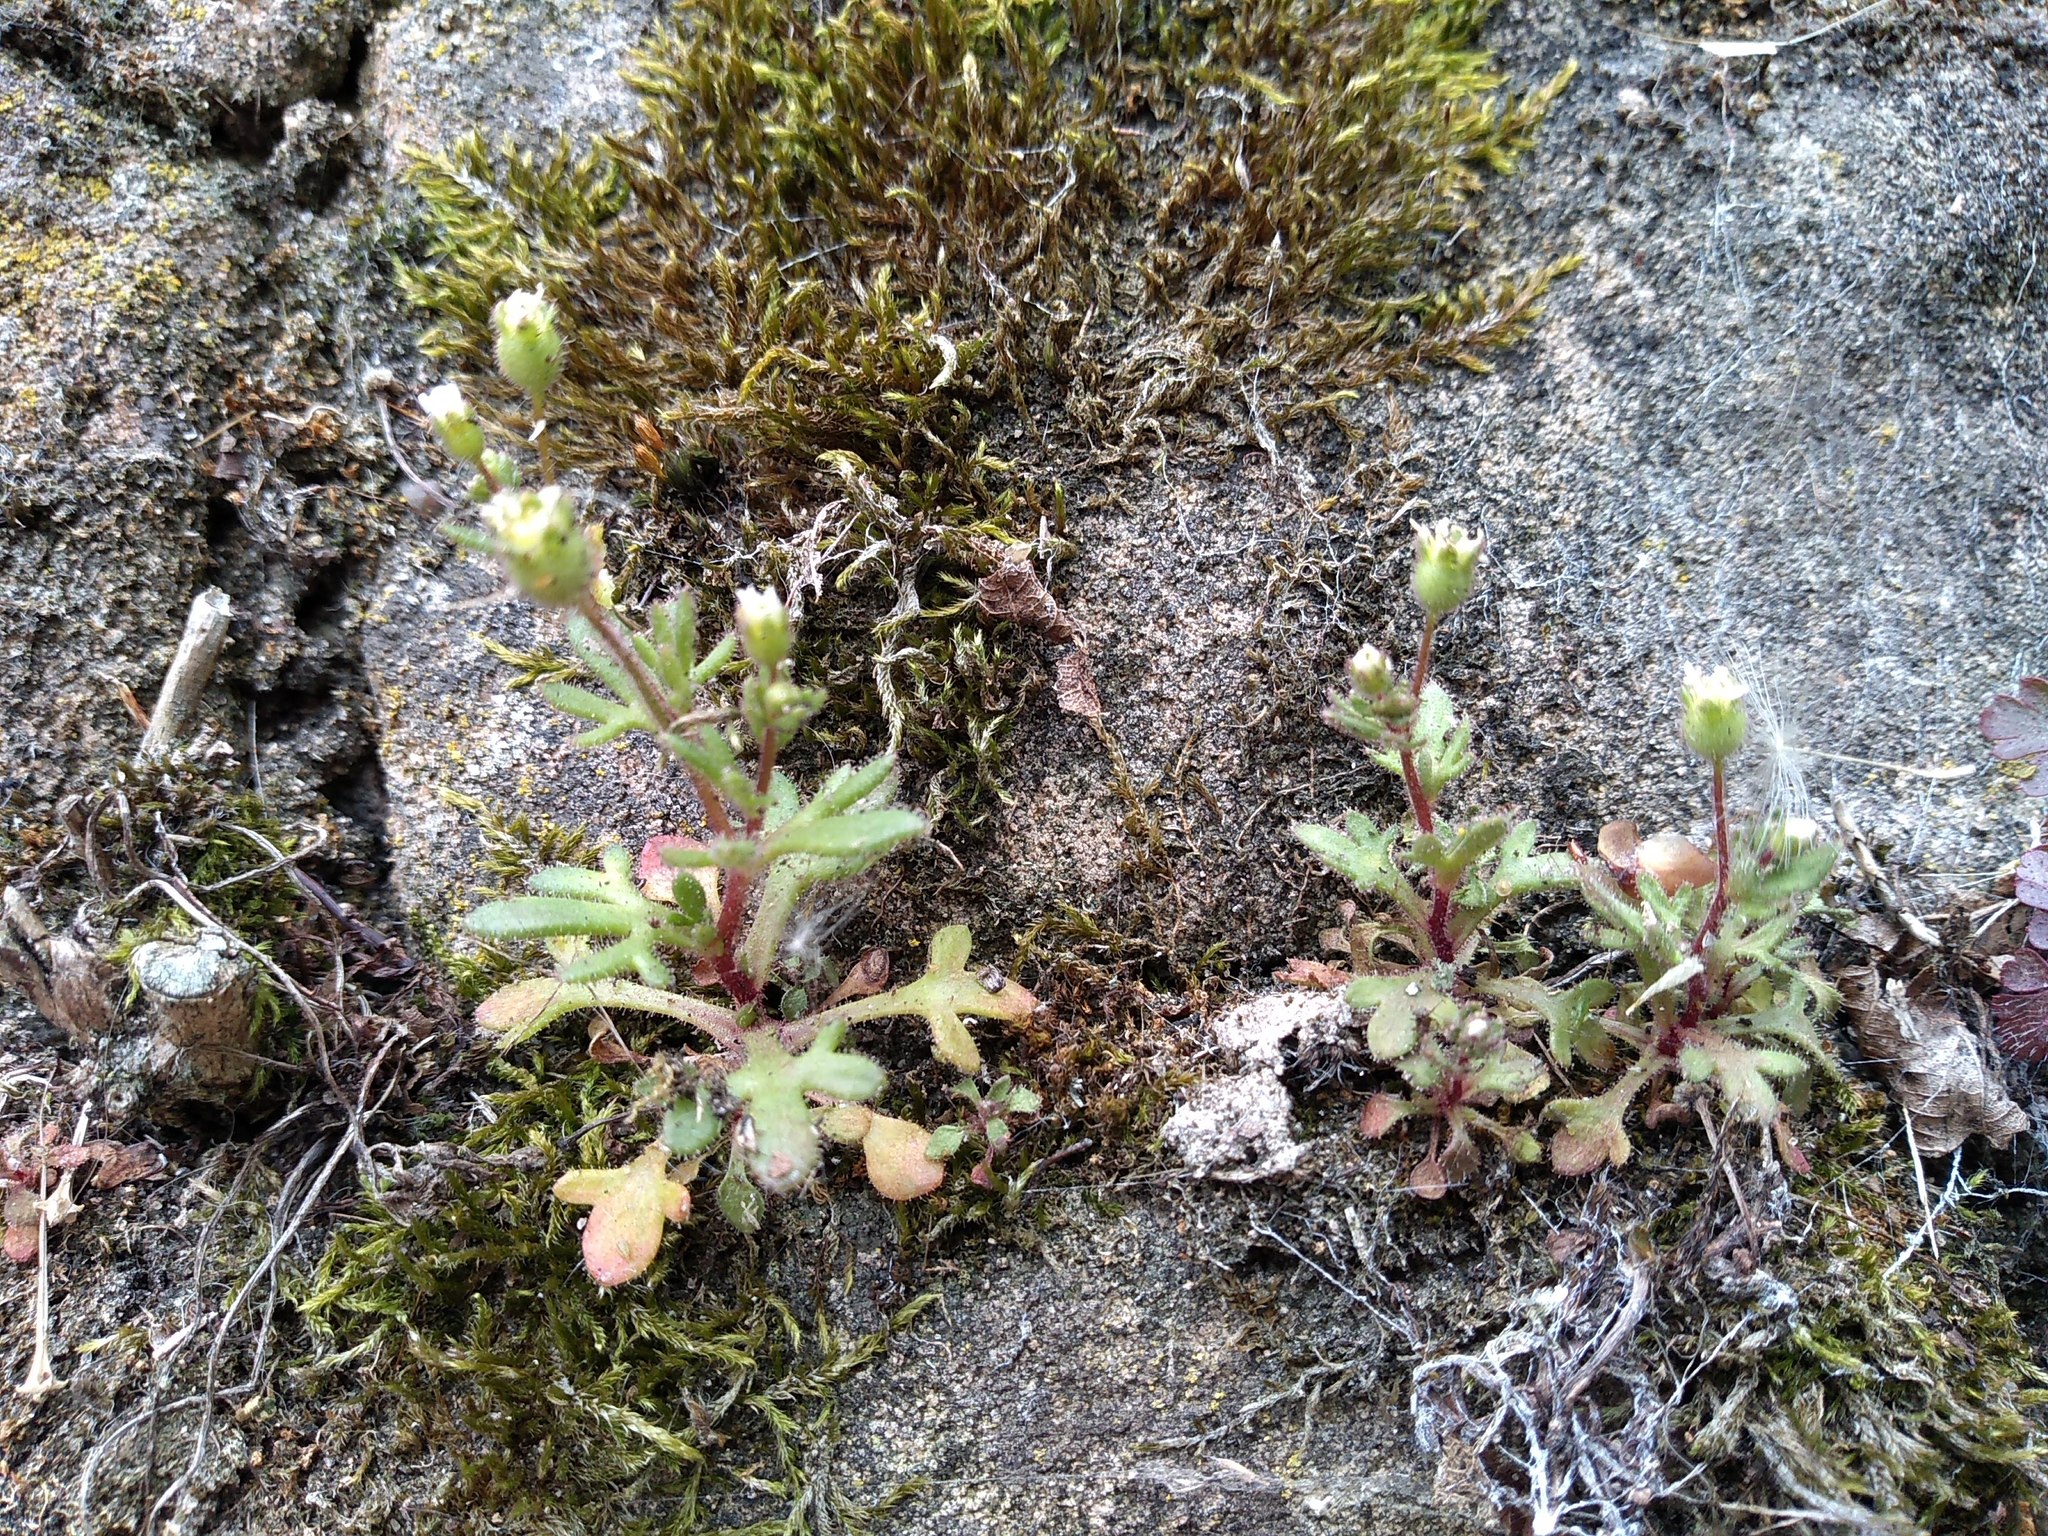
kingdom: Plantae
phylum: Tracheophyta
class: Magnoliopsida
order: Saxifragales
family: Saxifragaceae
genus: Saxifraga
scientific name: Saxifraga tridactylites
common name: Rue-leaved saxifrage
